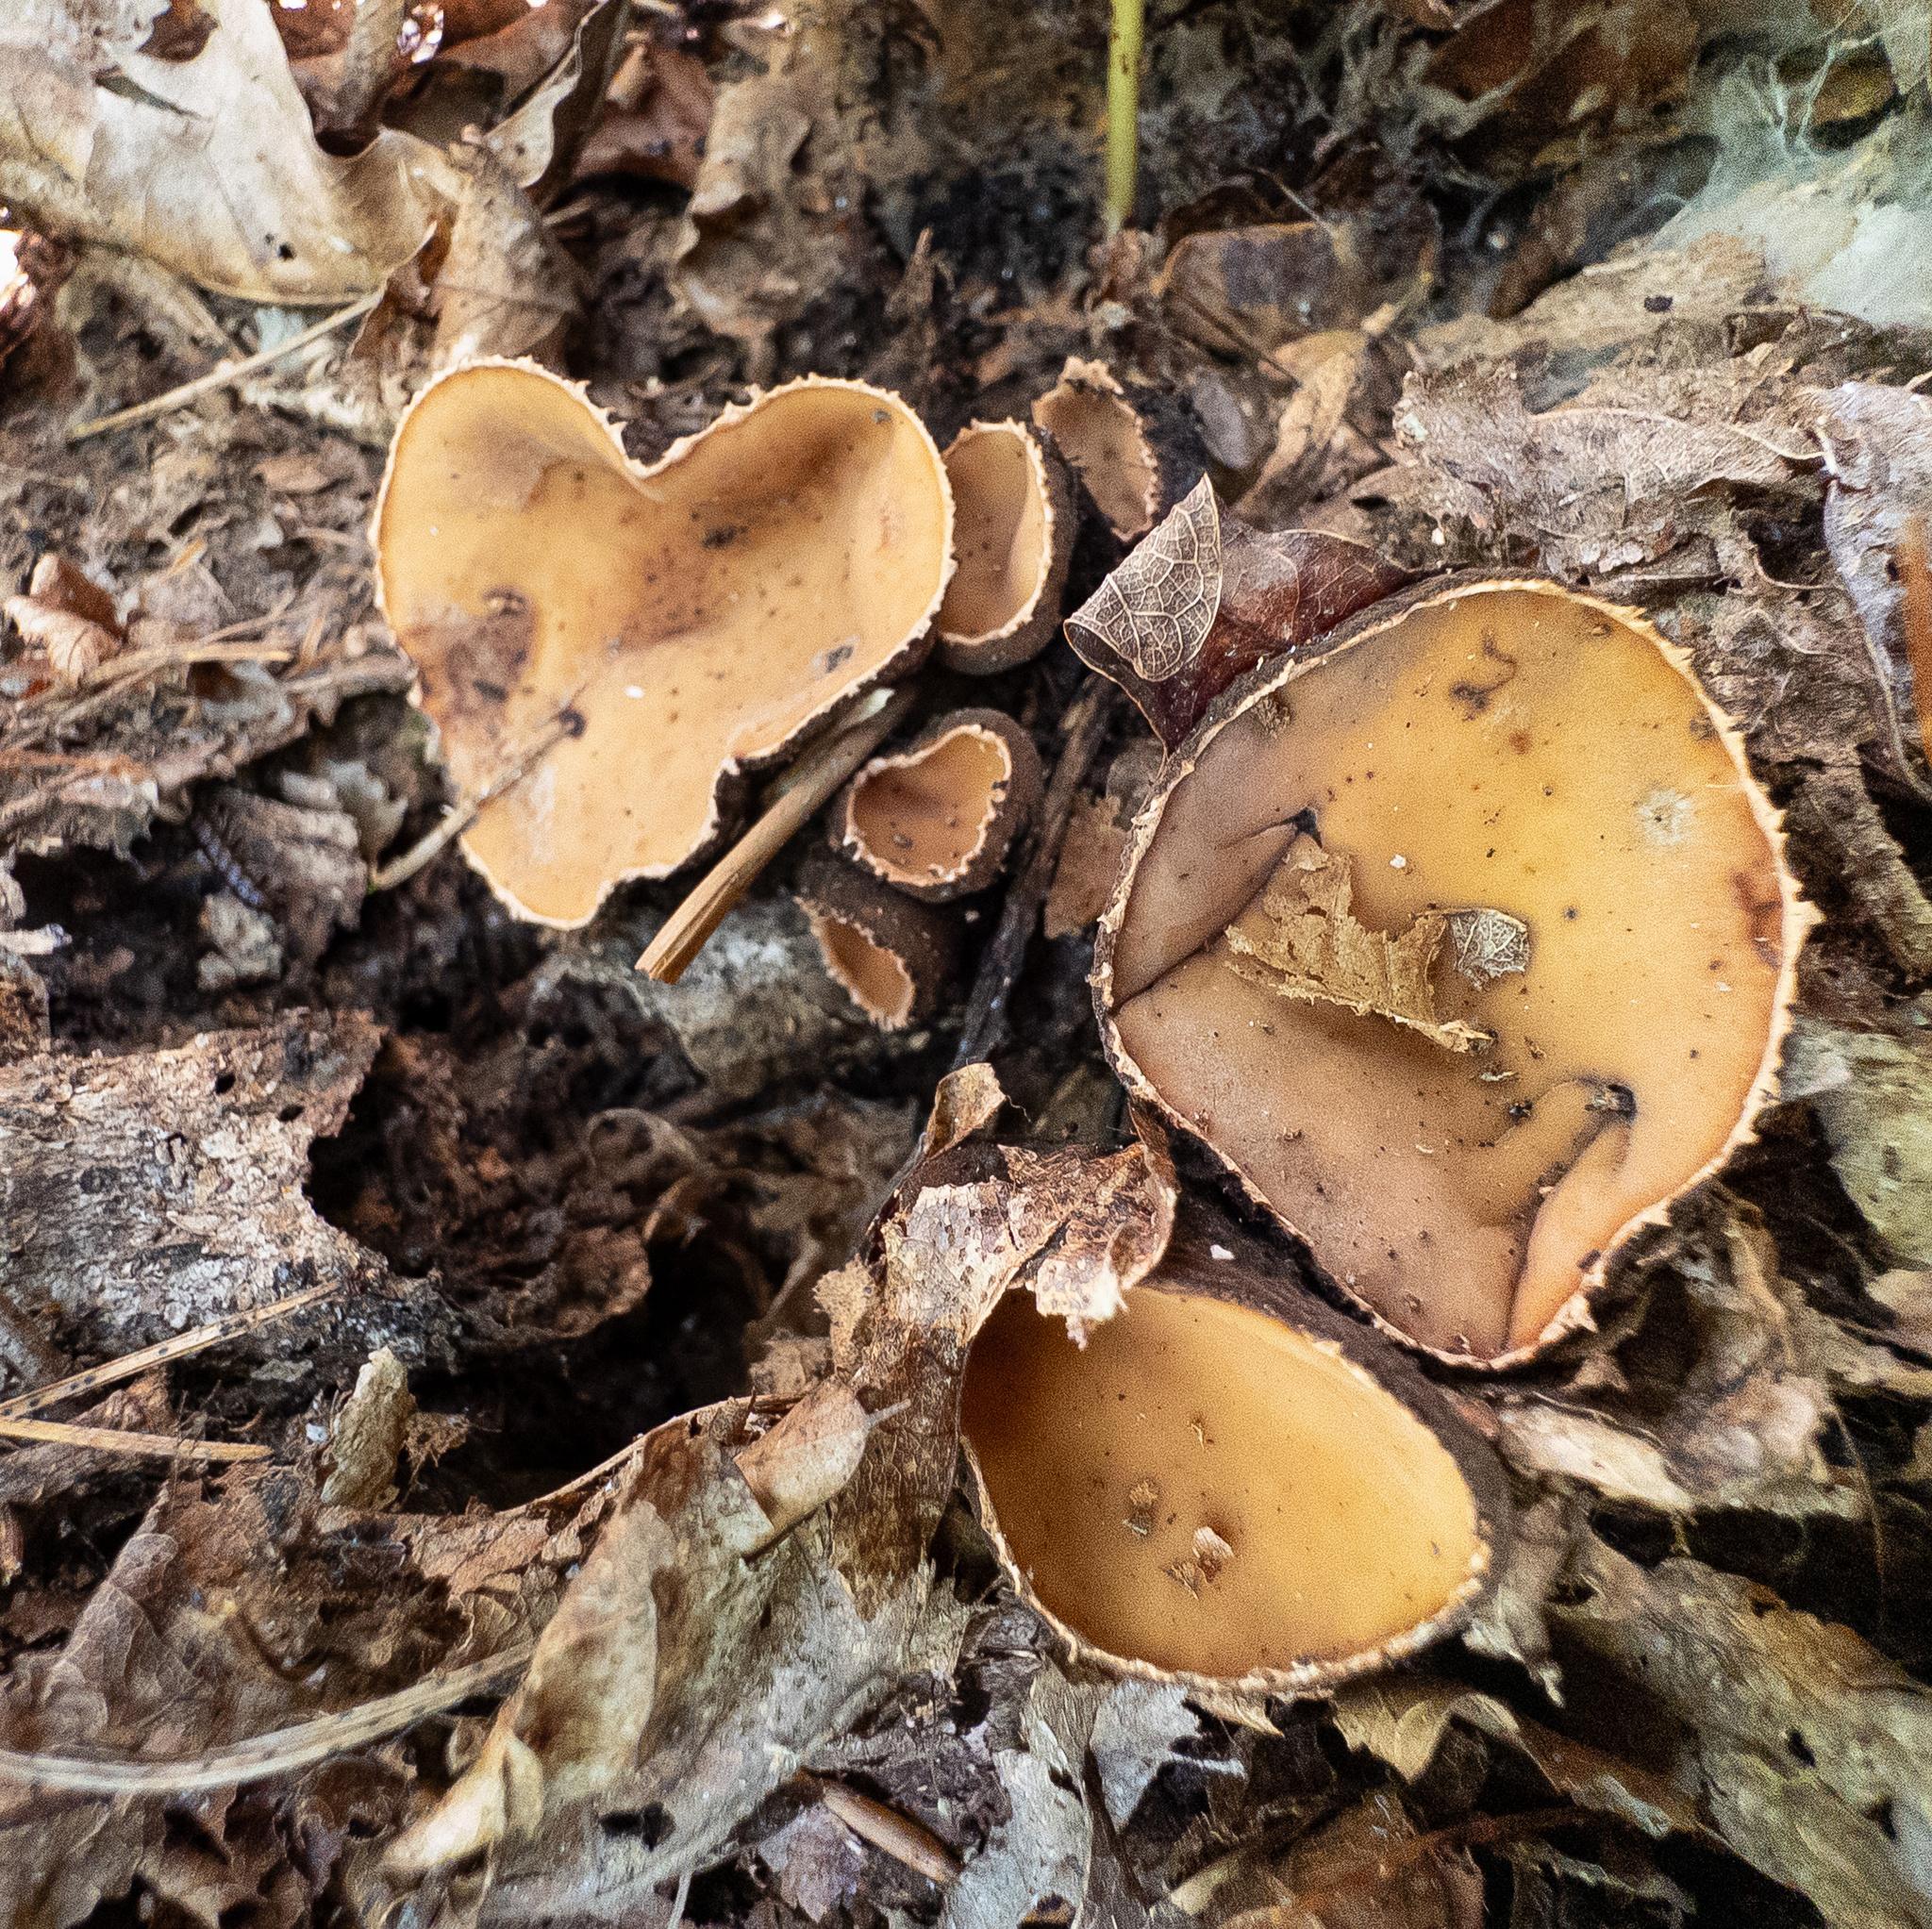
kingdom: Fungi
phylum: Ascomycota
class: Pezizomycetes
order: Pezizales
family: Sarcosomataceae
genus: Galiella
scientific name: Galiella rufa
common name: Hairy rubber cup
